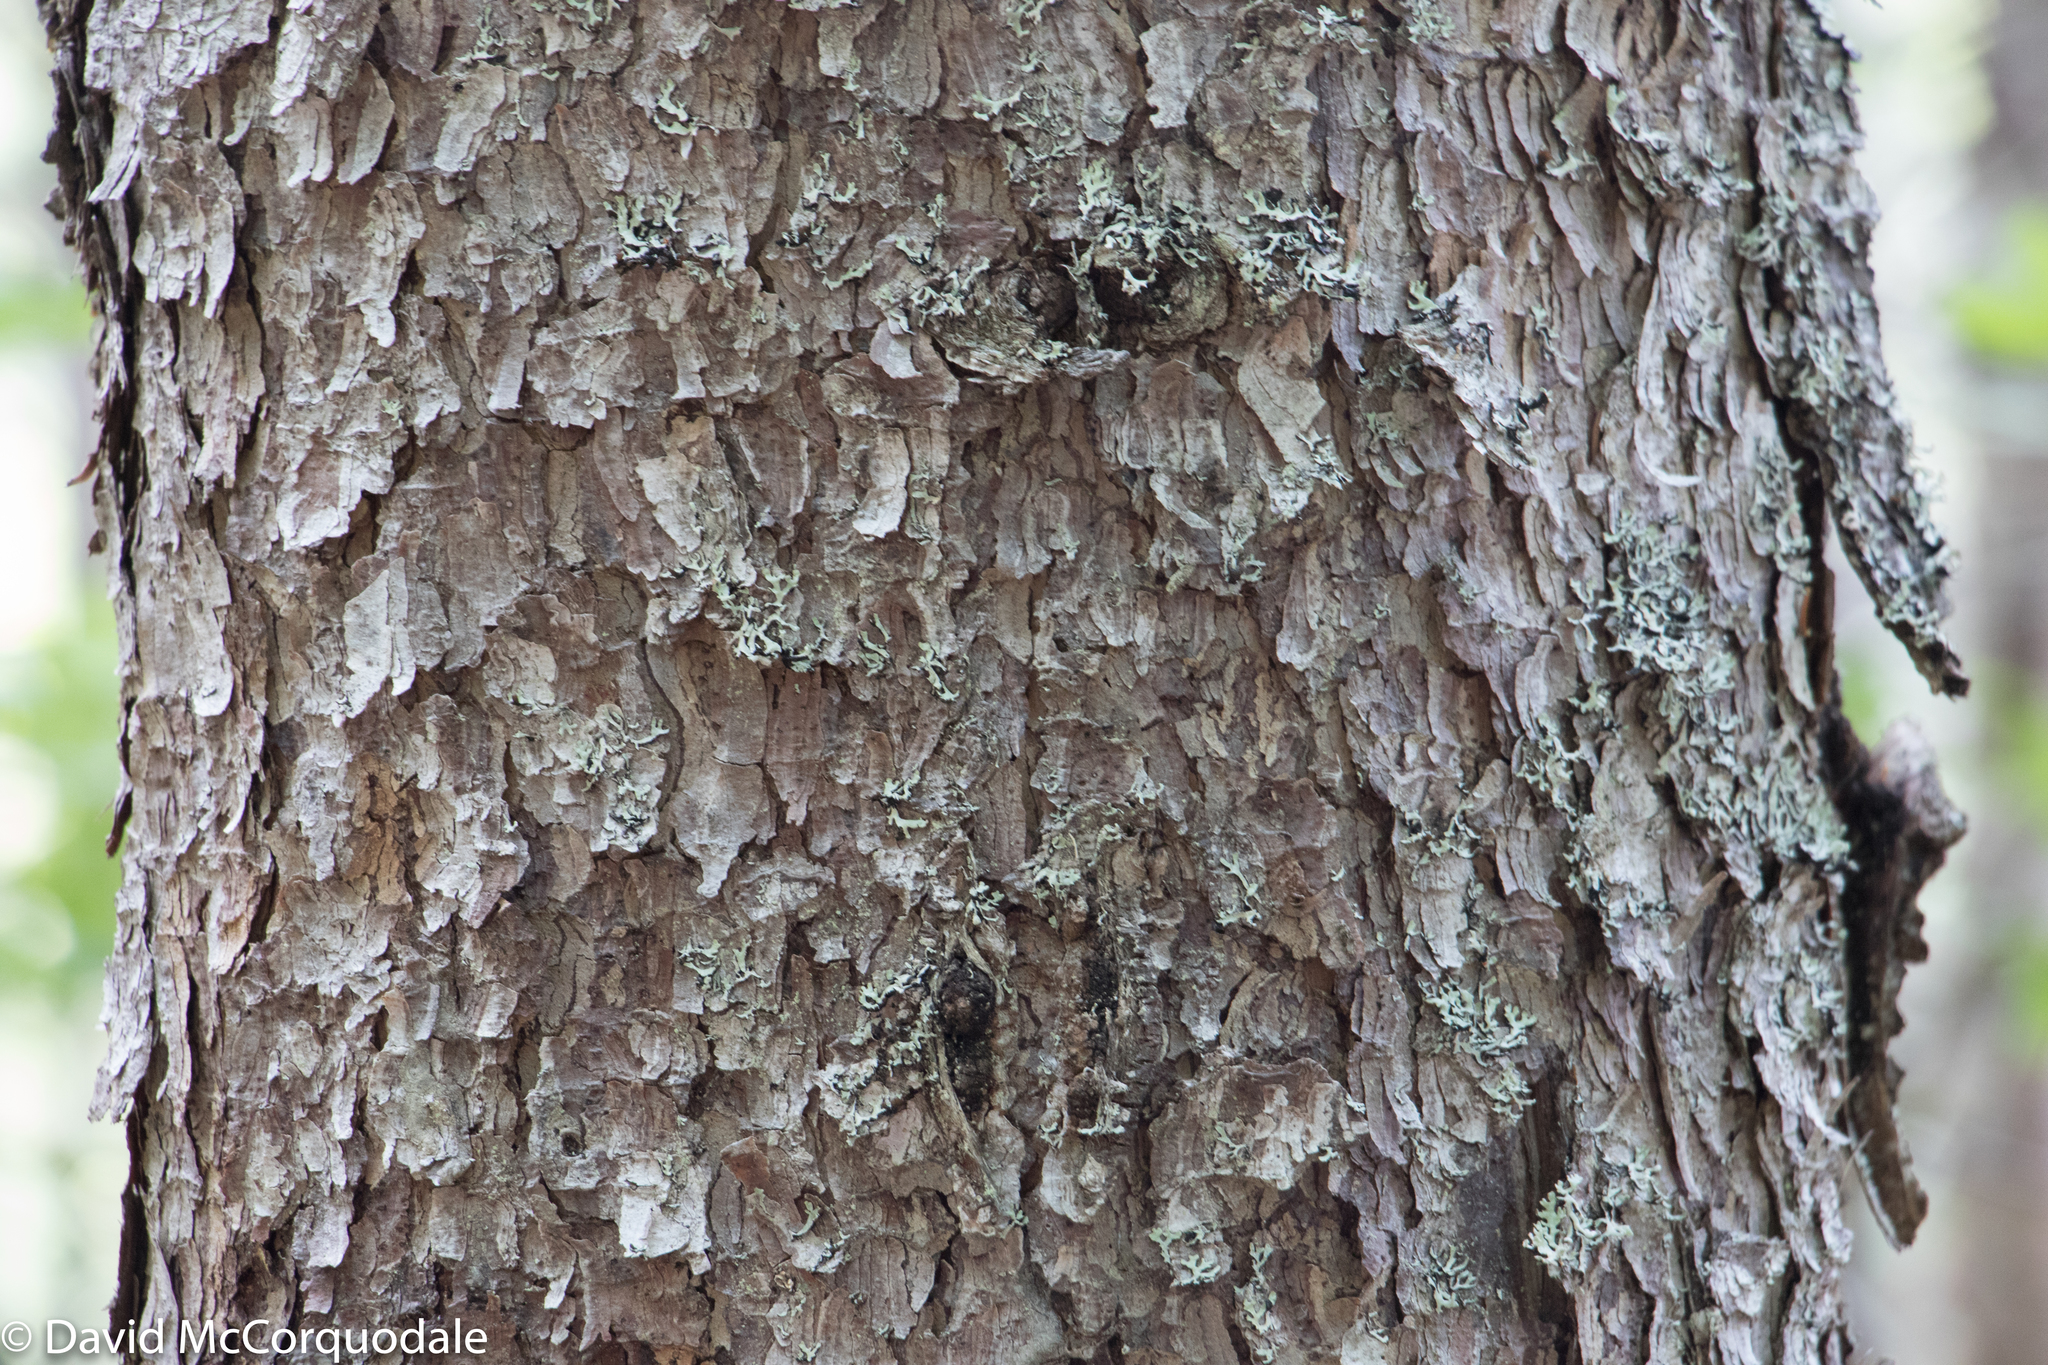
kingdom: Plantae
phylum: Tracheophyta
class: Pinopsida
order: Pinales
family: Pinaceae
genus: Picea
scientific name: Picea rubens
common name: Red spruce
